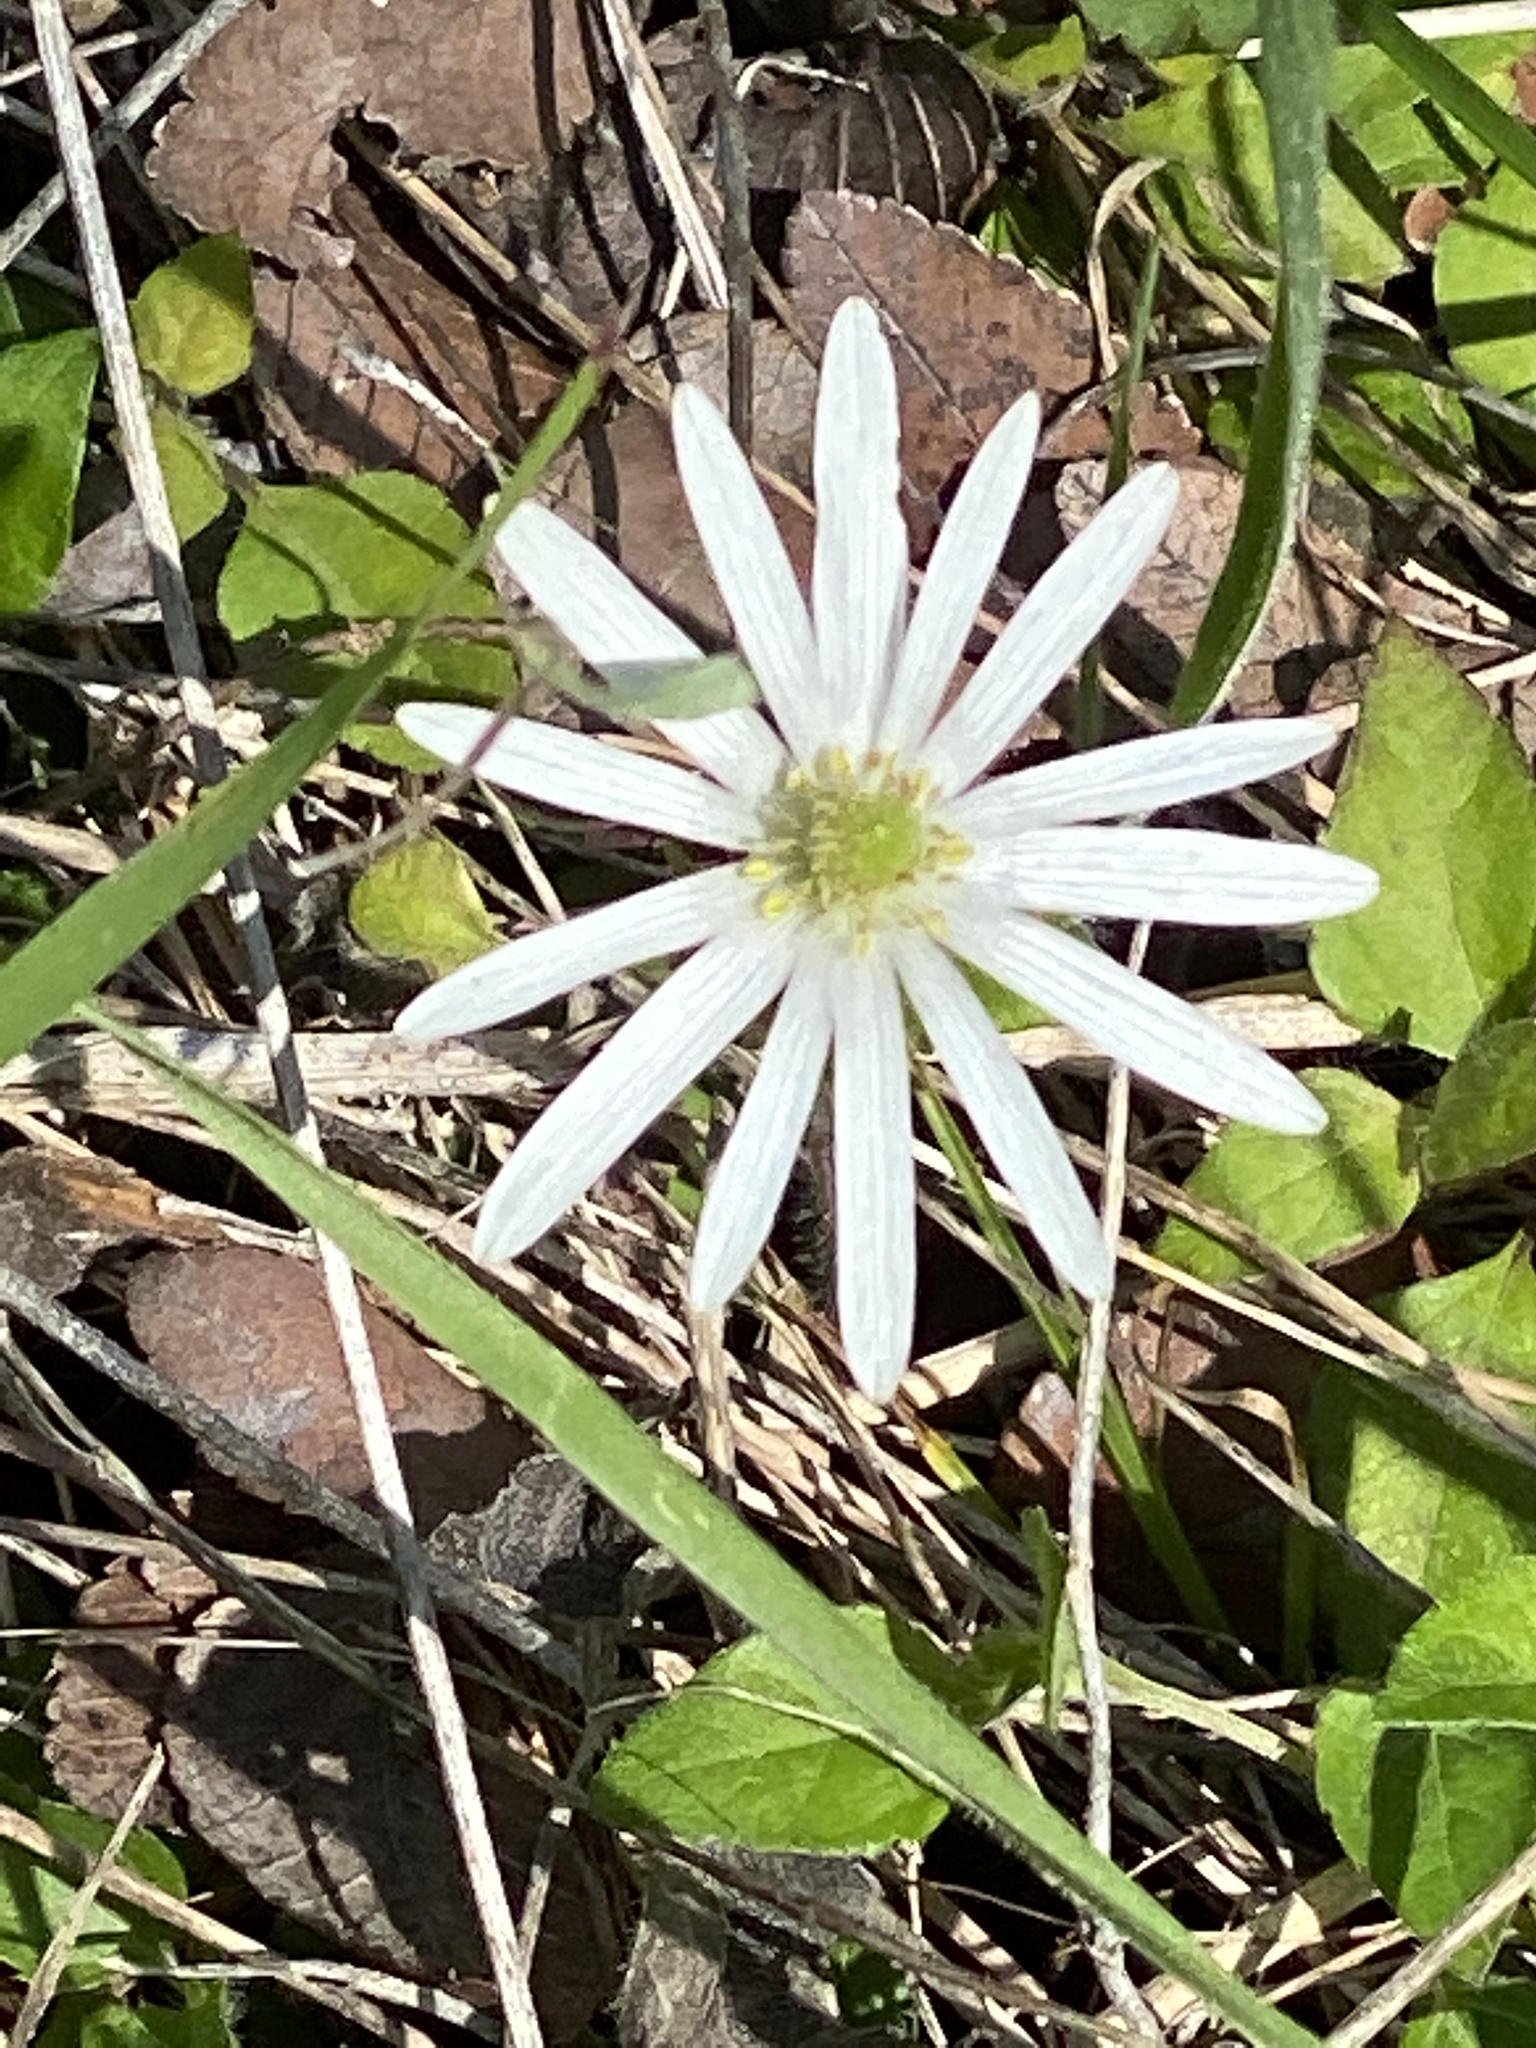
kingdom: Plantae
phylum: Tracheophyta
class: Magnoliopsida
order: Ranunculales
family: Ranunculaceae
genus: Anemone
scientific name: Anemone berlandieri
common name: Ten-petal anemone
